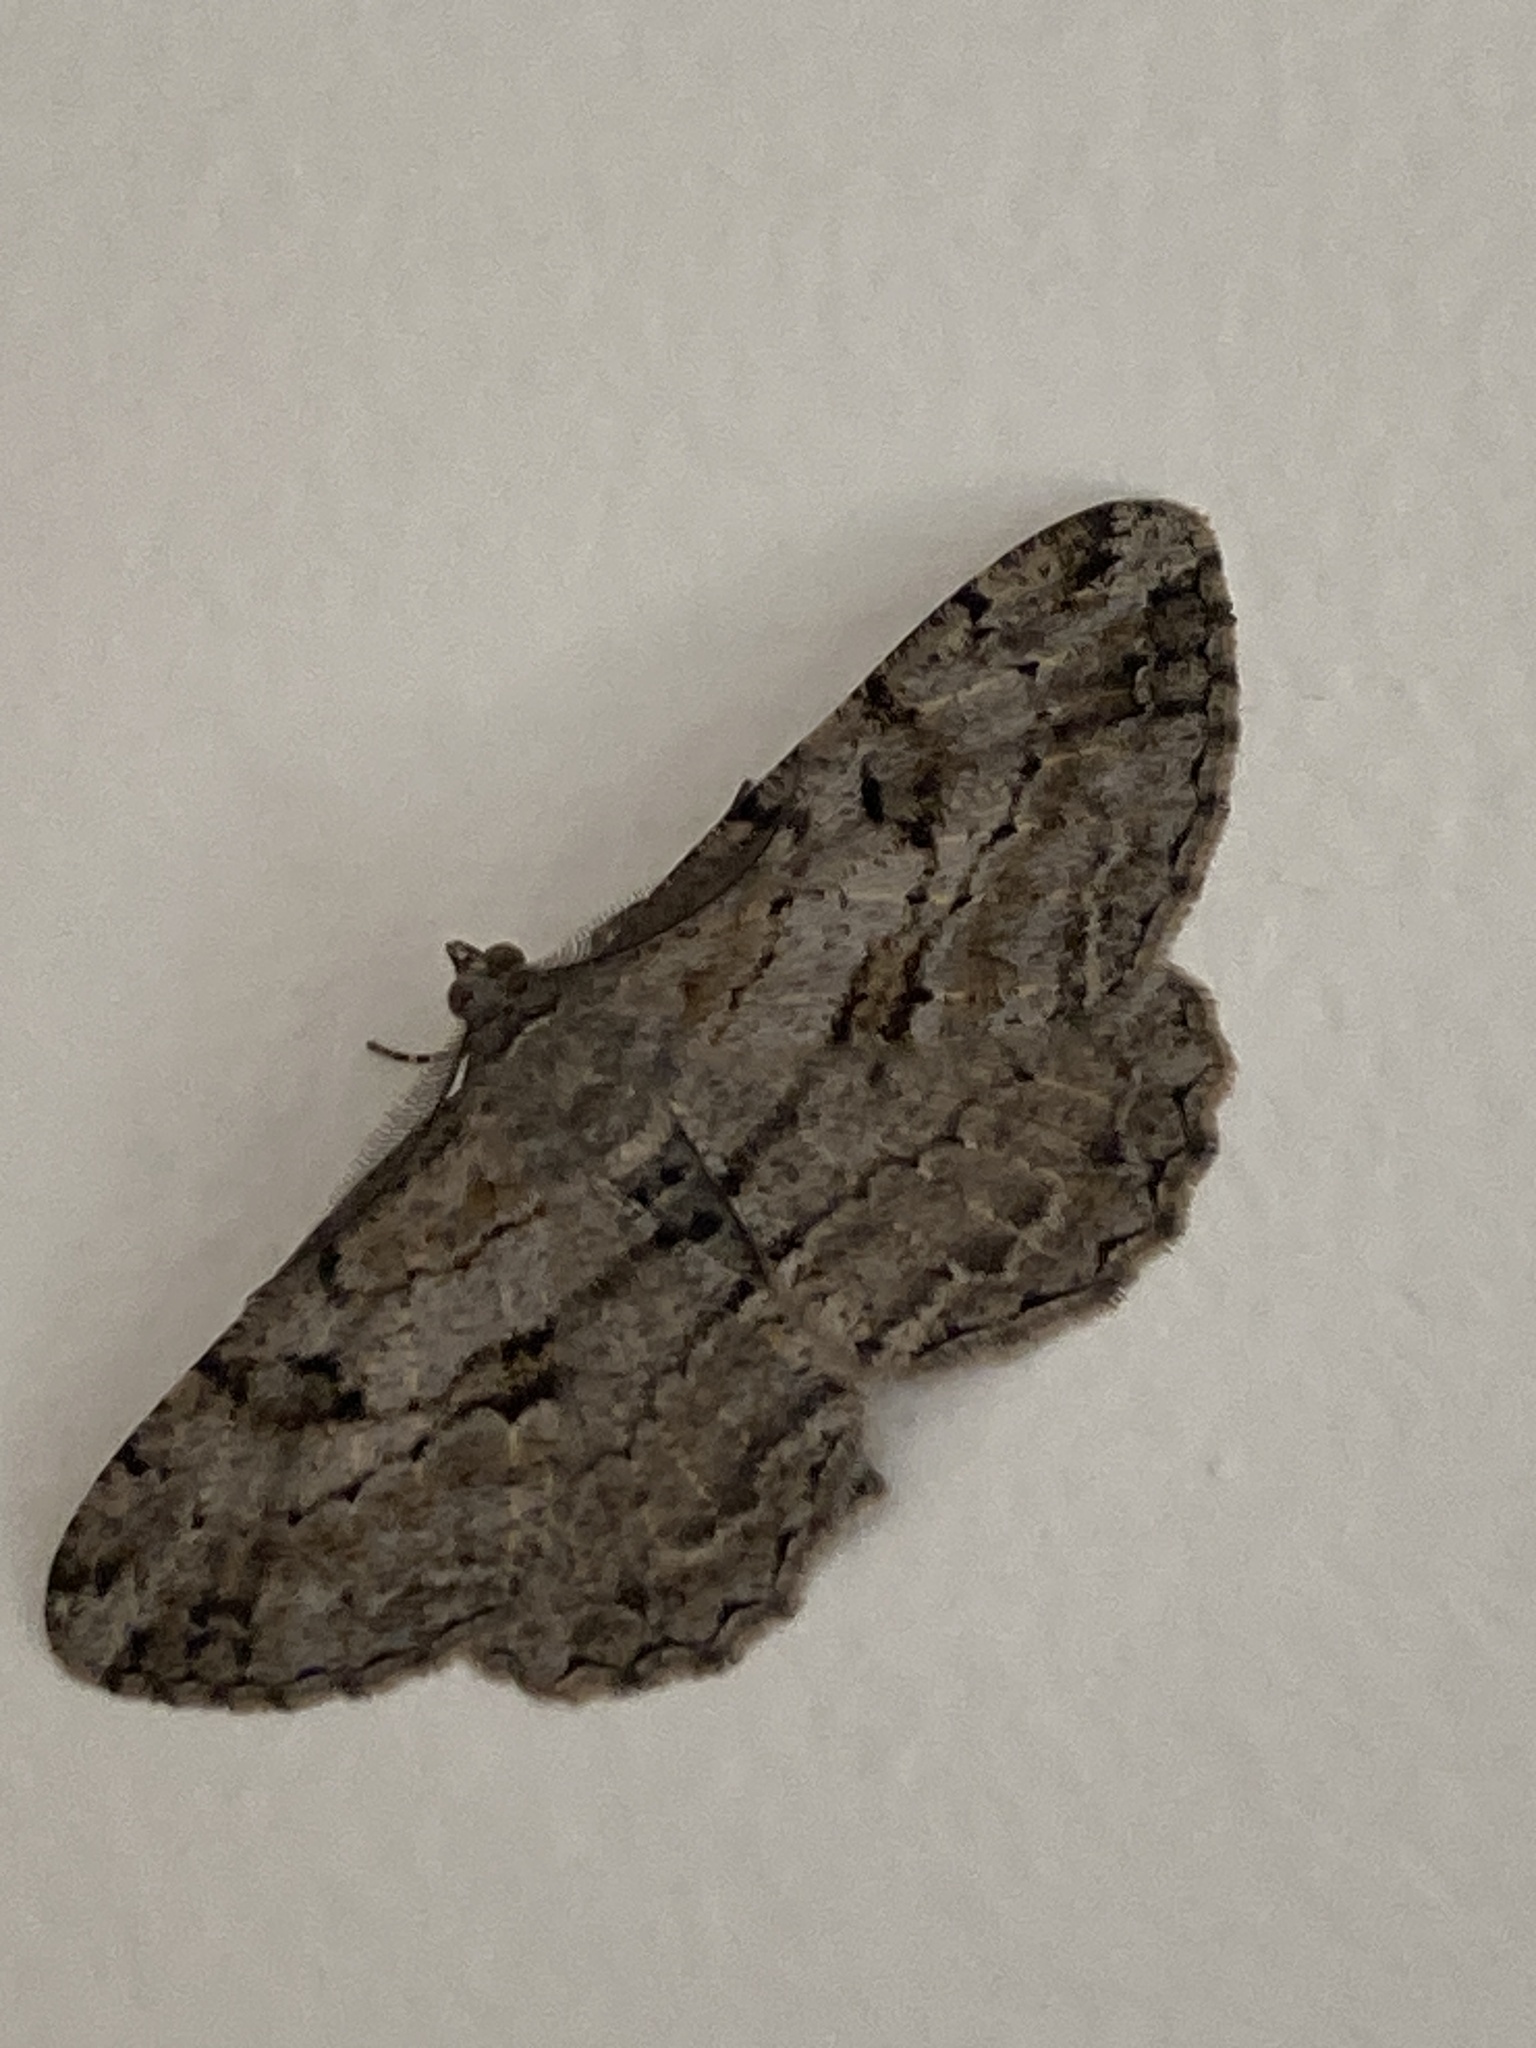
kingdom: Animalia
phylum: Arthropoda
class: Insecta
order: Lepidoptera
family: Geometridae
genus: Peribatodes
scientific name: Peribatodes rhomboidaria
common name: Willow beauty
